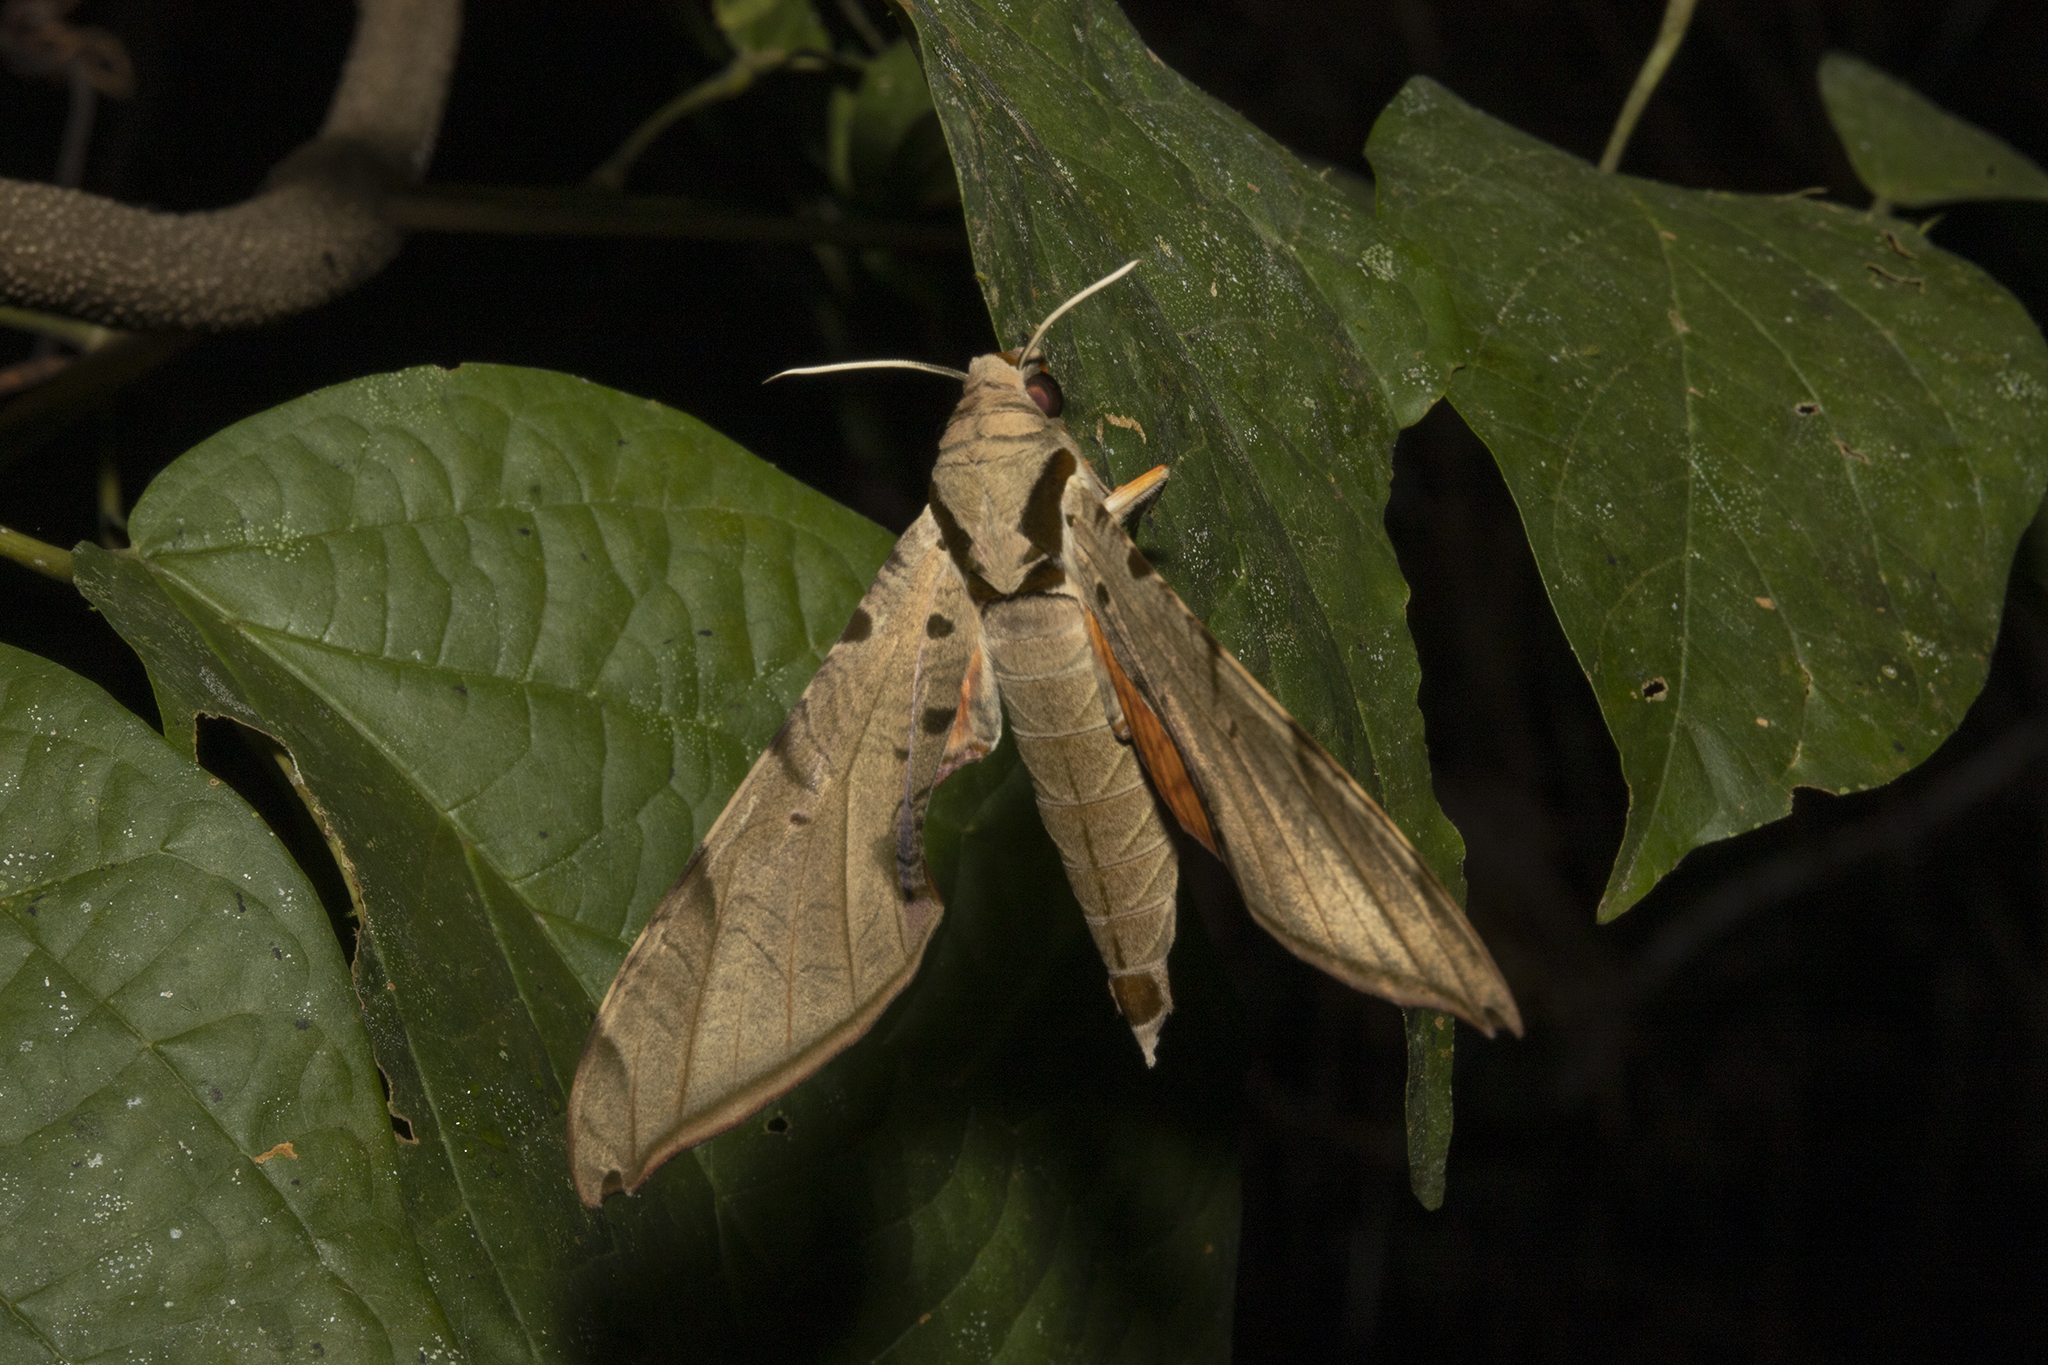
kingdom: Animalia
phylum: Arthropoda
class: Insecta
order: Lepidoptera
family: Sphingidae
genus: Protambulyx
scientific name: Protambulyx strigilis
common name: Streaked sphinx
